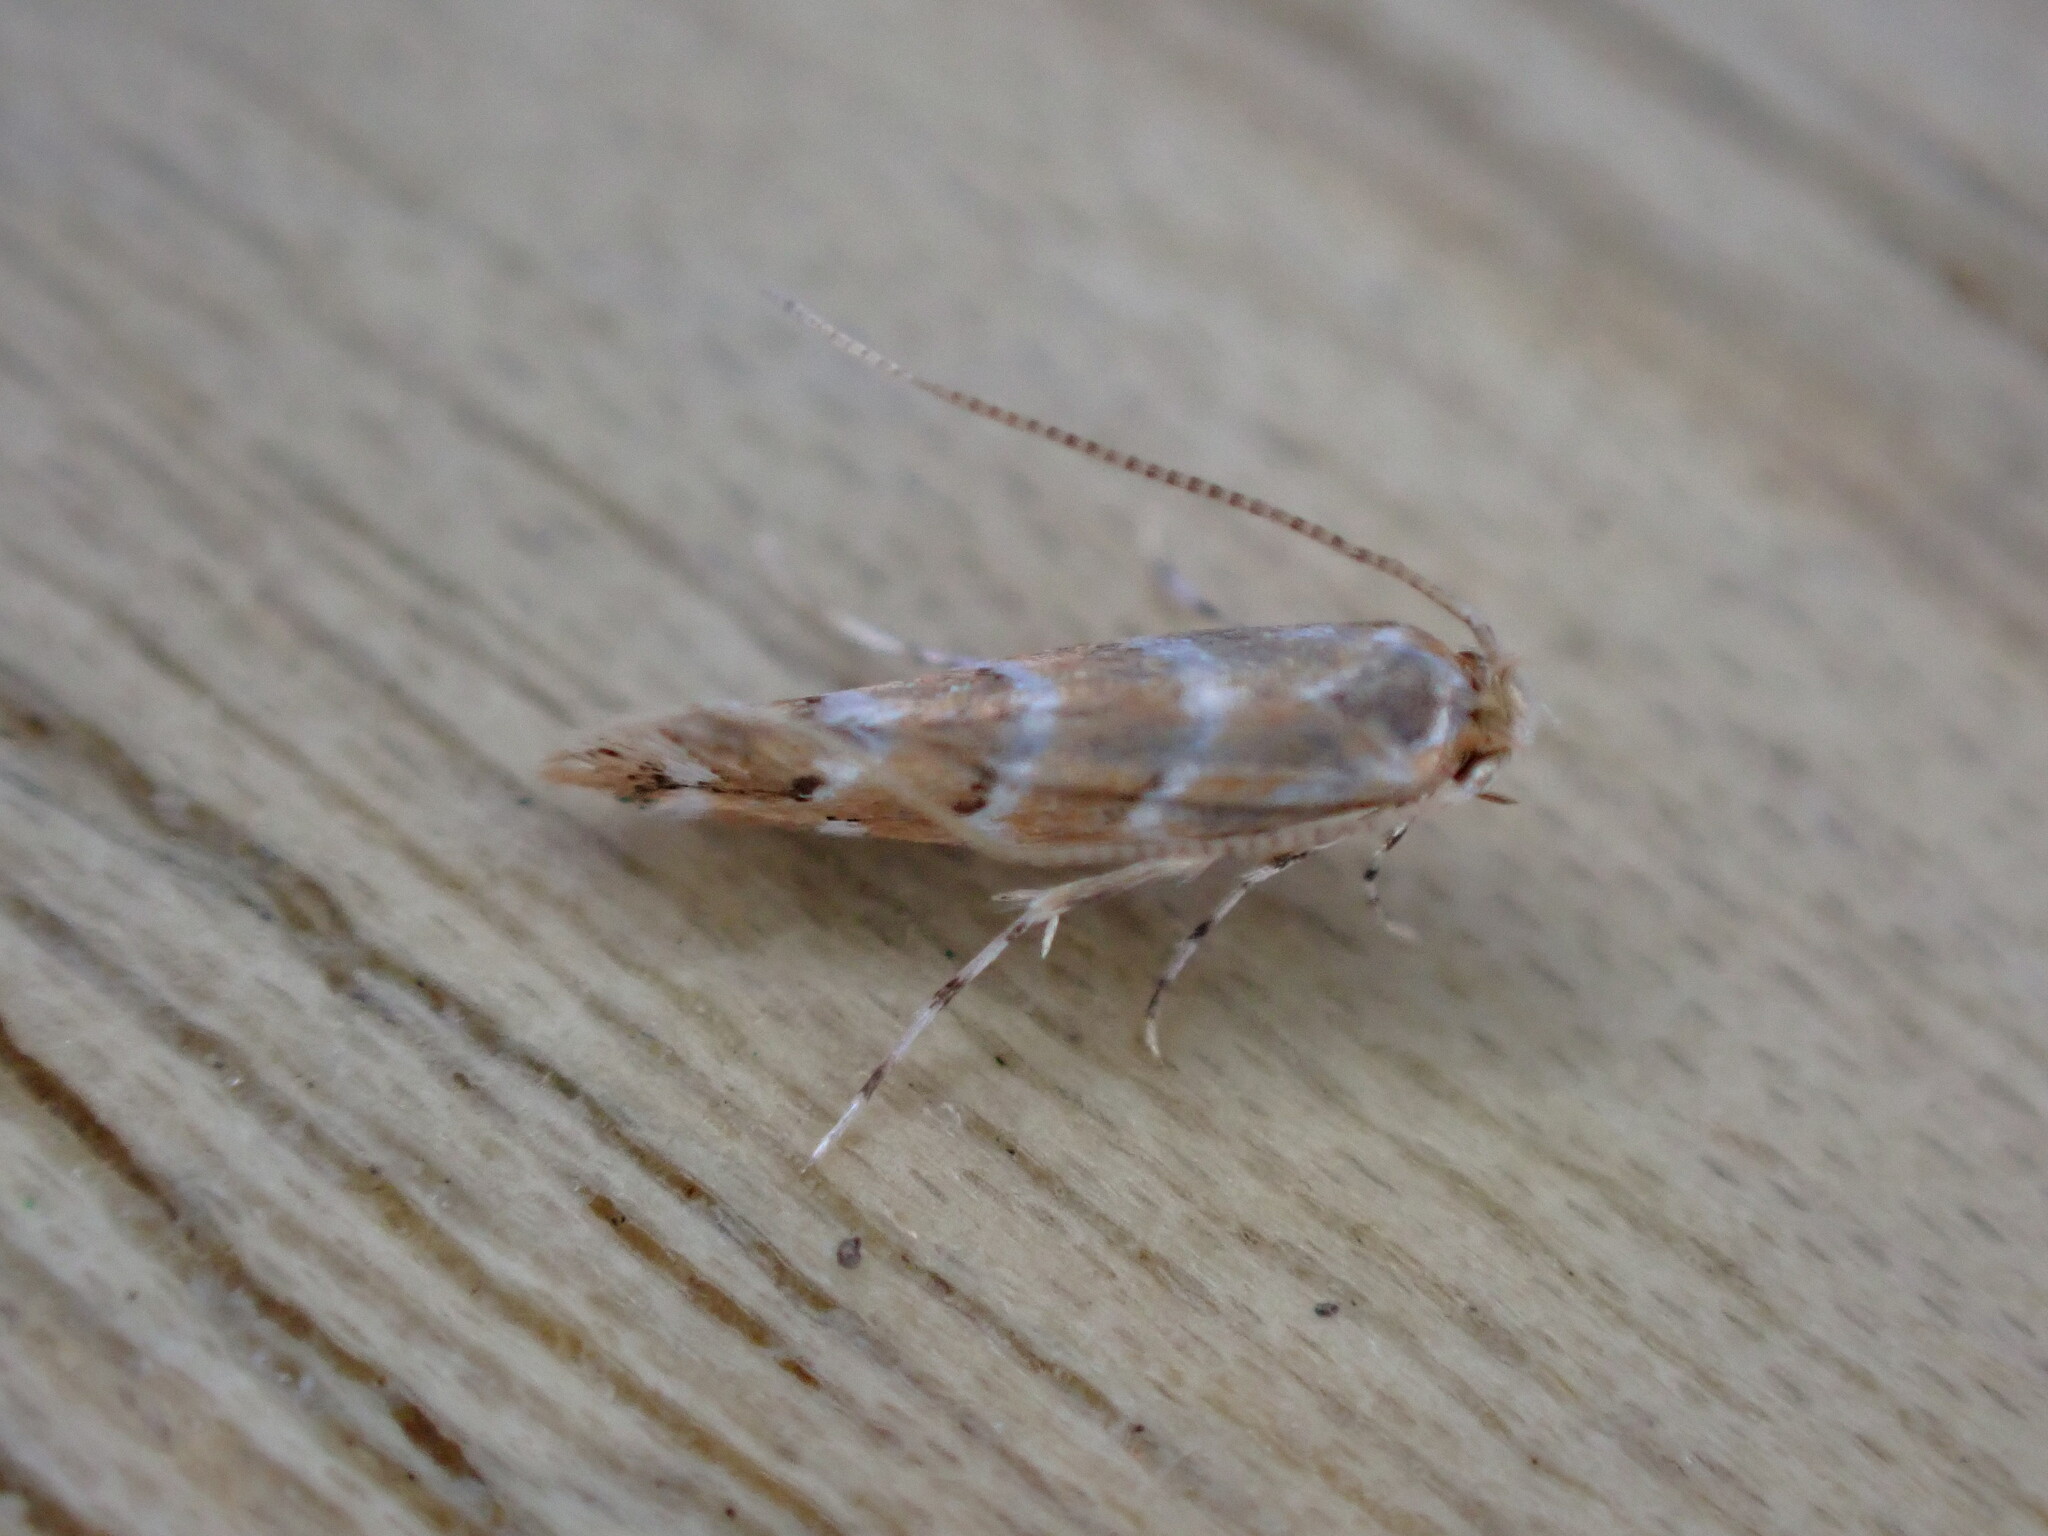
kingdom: Animalia
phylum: Arthropoda
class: Insecta
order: Lepidoptera
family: Gracillariidae
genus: Cameraria
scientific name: Cameraria ohridella
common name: Horse-chestnut leaf-miner
